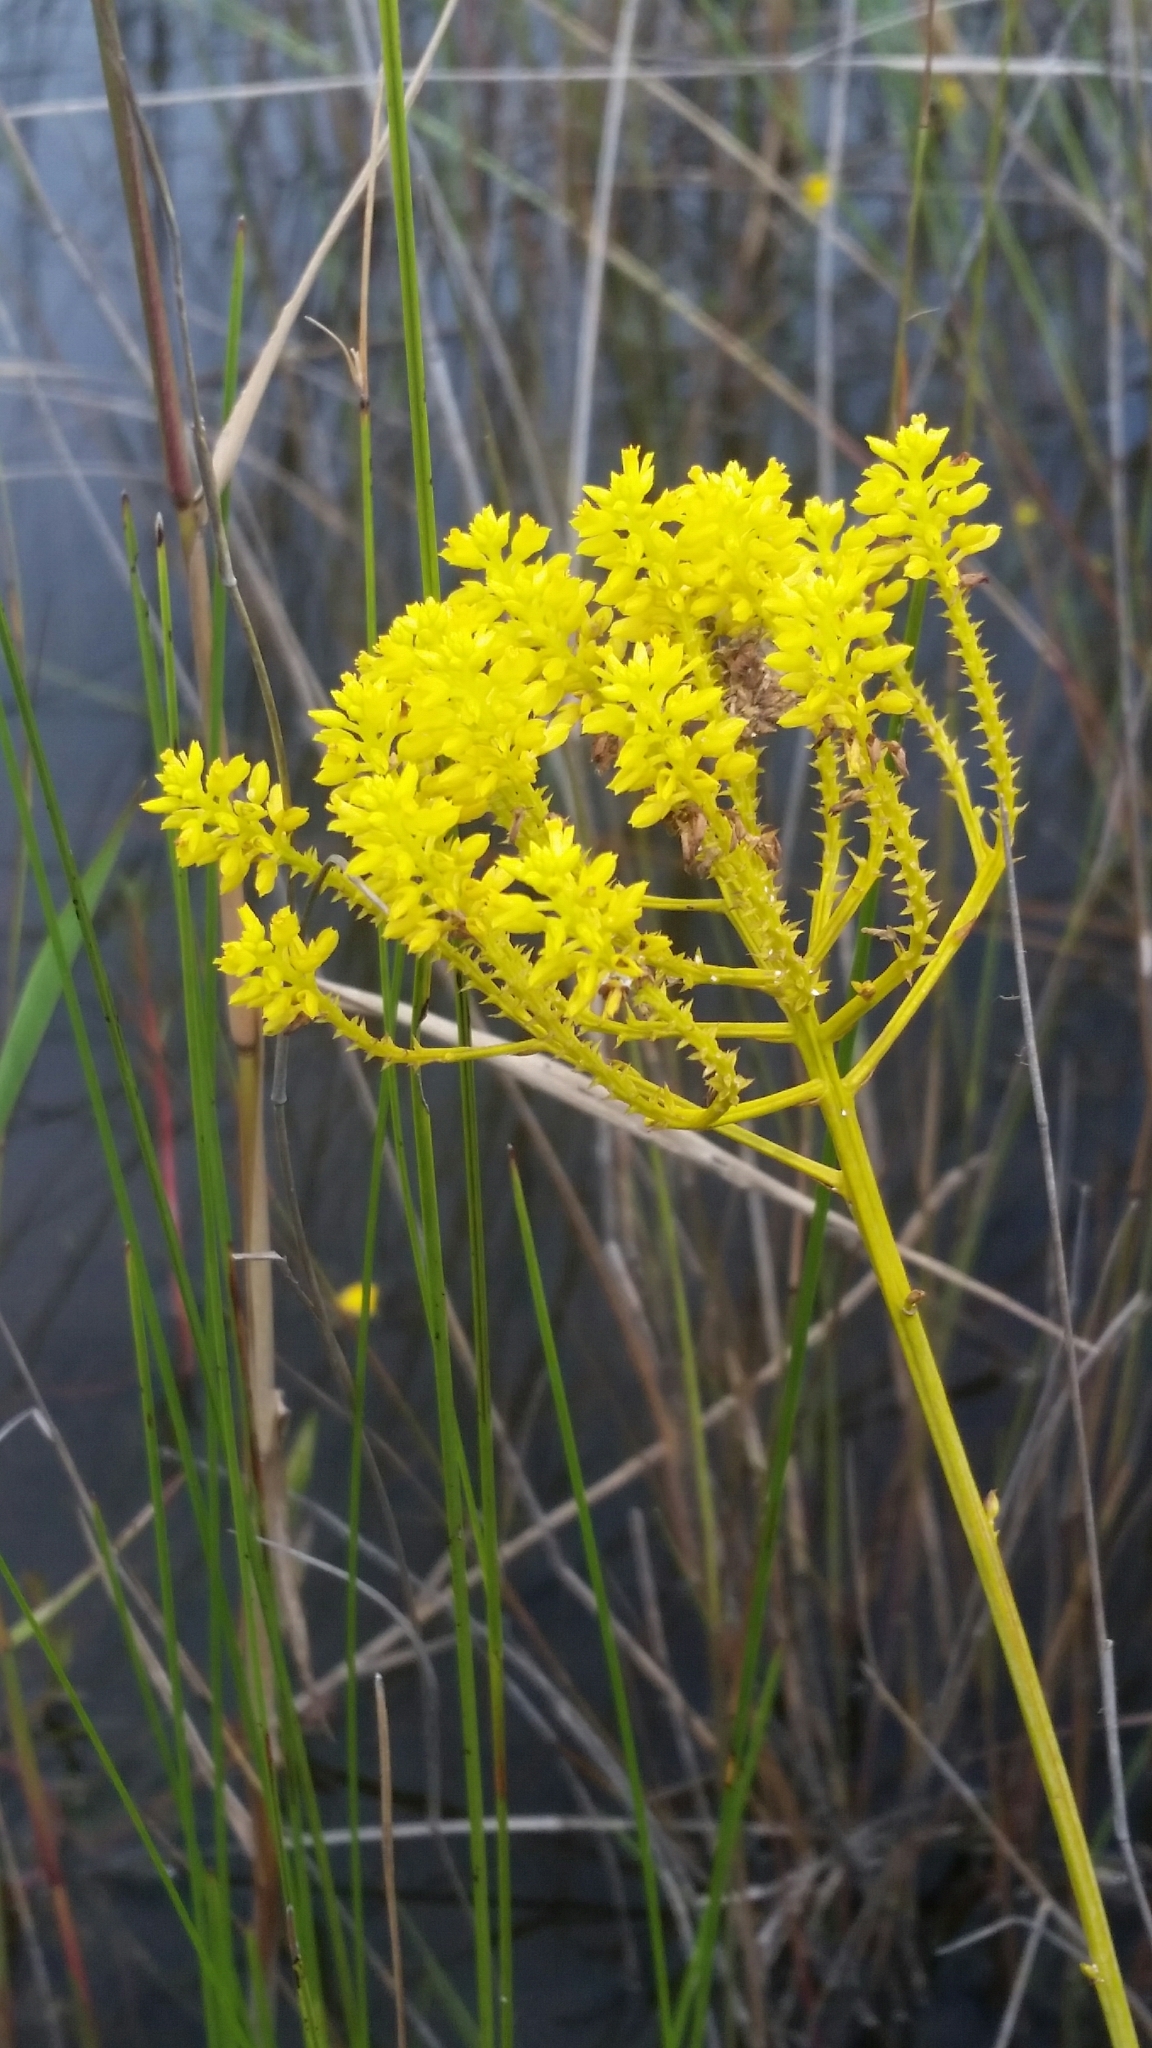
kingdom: Plantae
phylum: Tracheophyta
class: Magnoliopsida
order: Fabales
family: Polygalaceae
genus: Polygala
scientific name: Polygala cymosa
